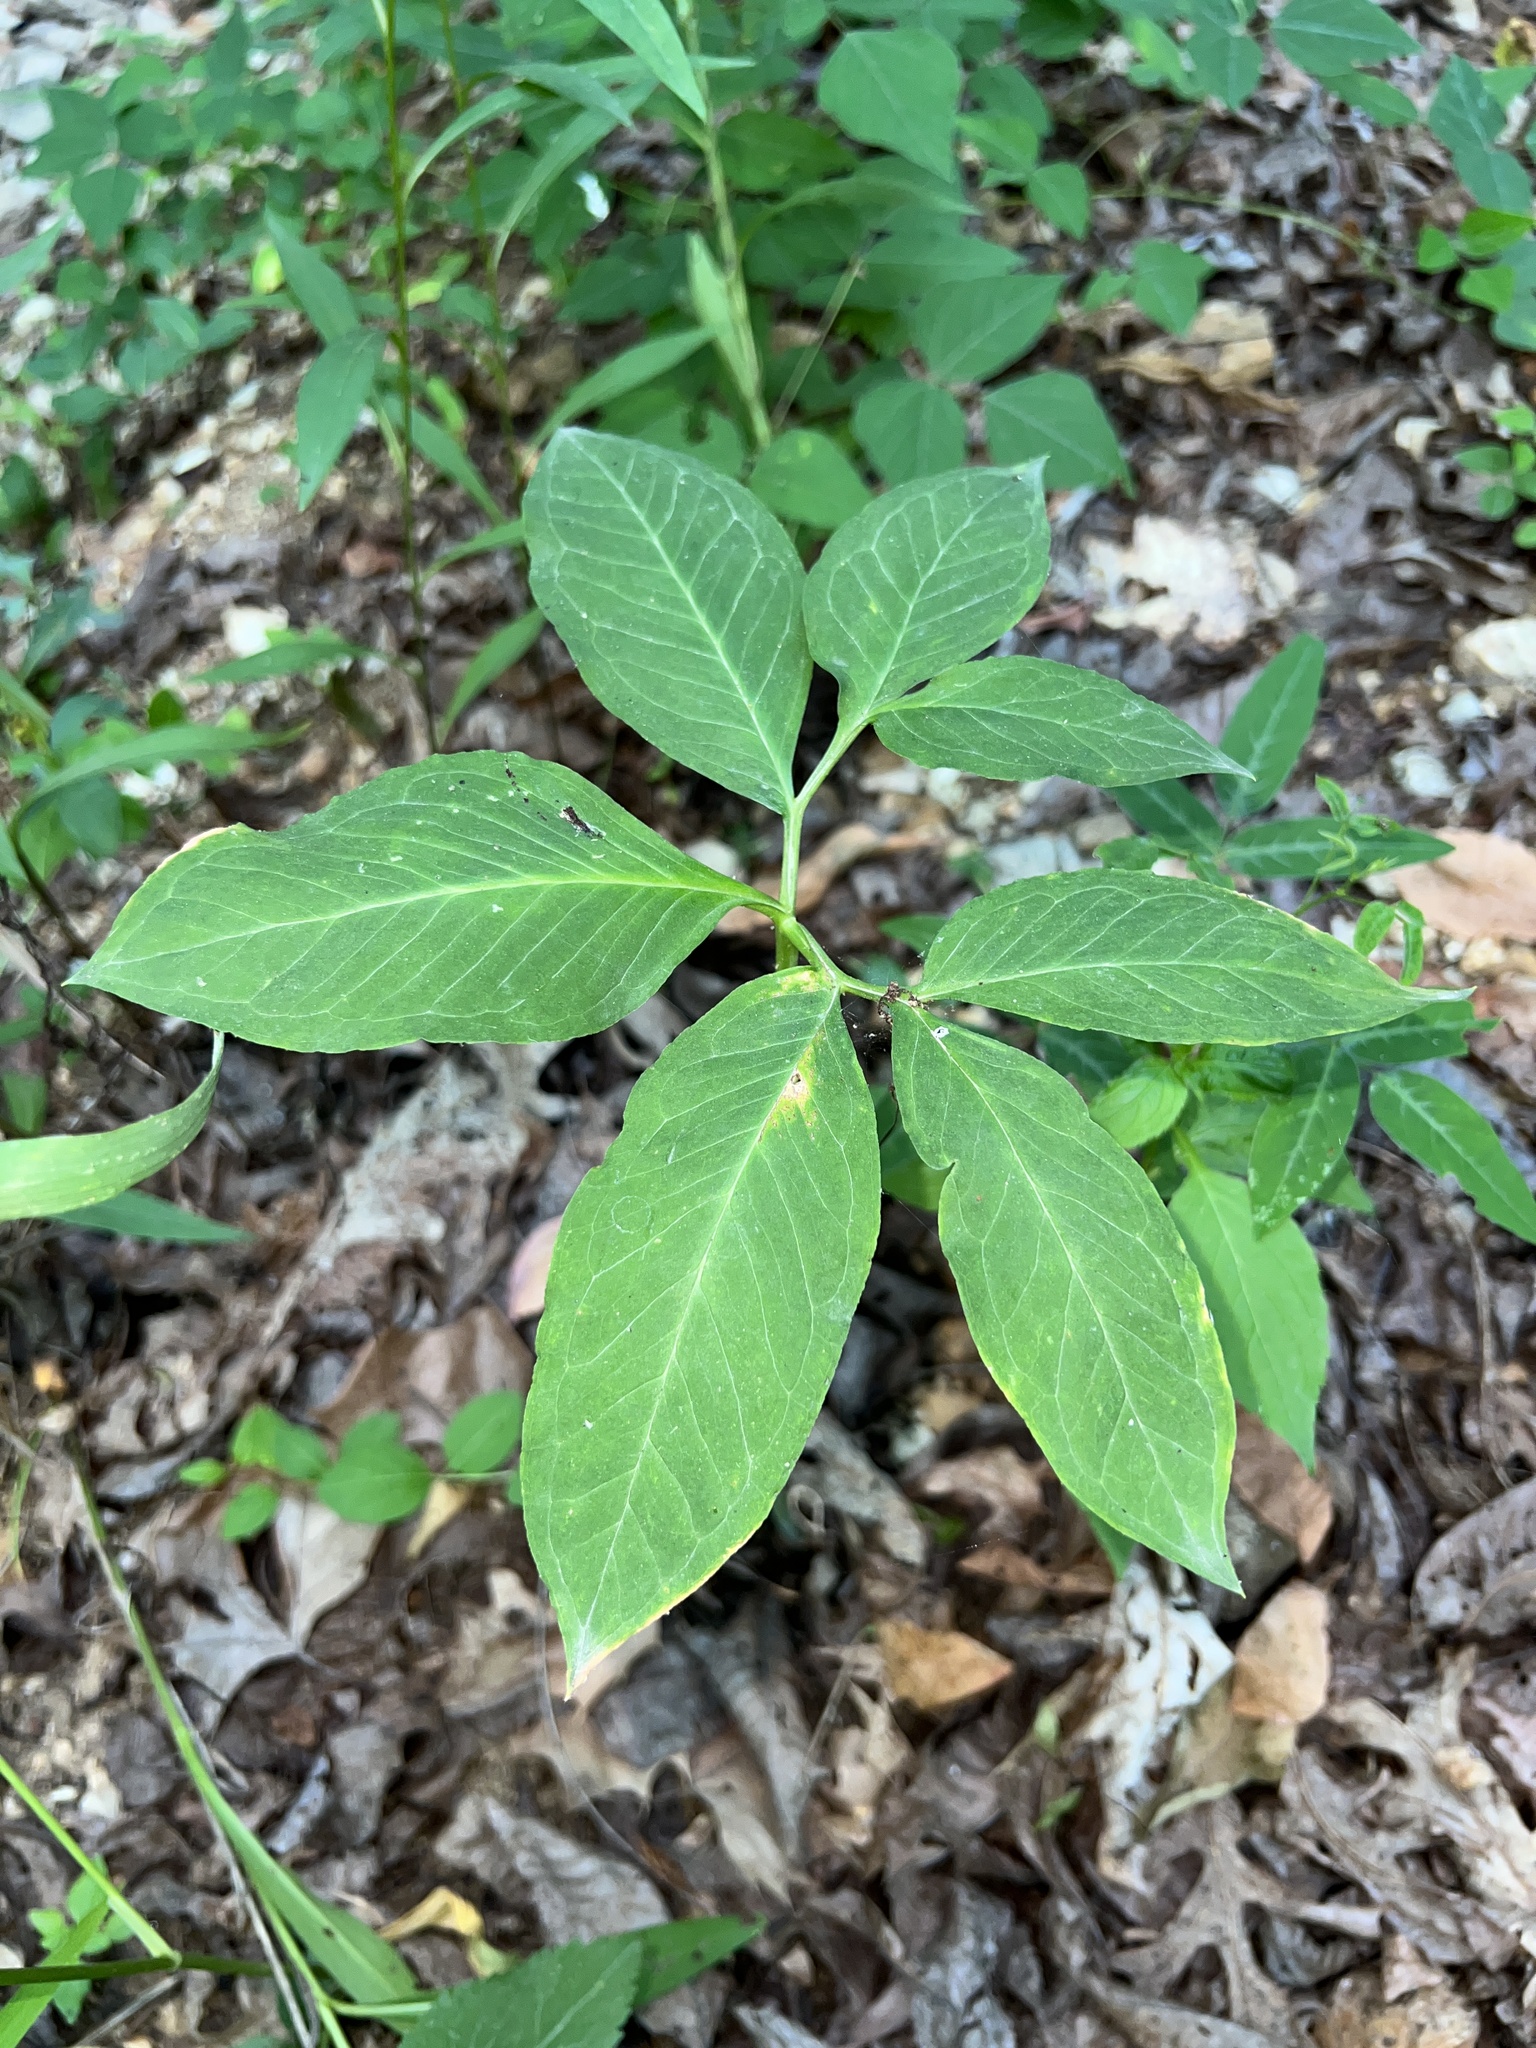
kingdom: Plantae
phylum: Tracheophyta
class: Liliopsida
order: Alismatales
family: Araceae
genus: Arisaema
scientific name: Arisaema dracontium
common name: Dragon-arum
